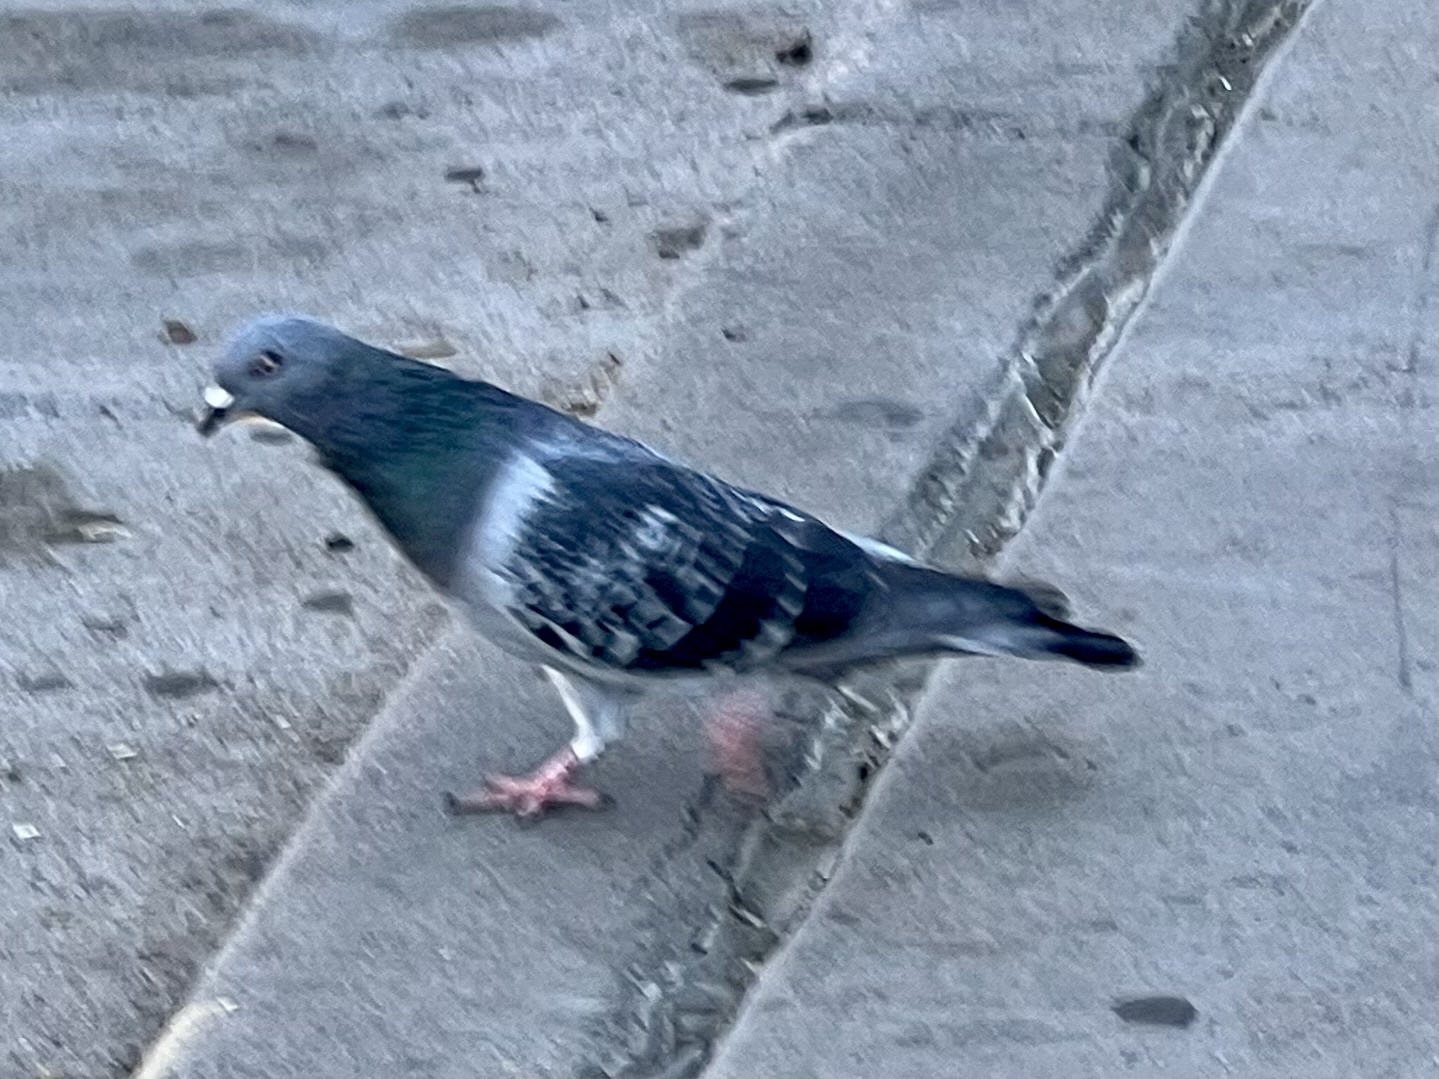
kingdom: Animalia
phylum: Chordata
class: Aves
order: Columbiformes
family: Columbidae
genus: Columba
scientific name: Columba livia
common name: Rock pigeon
